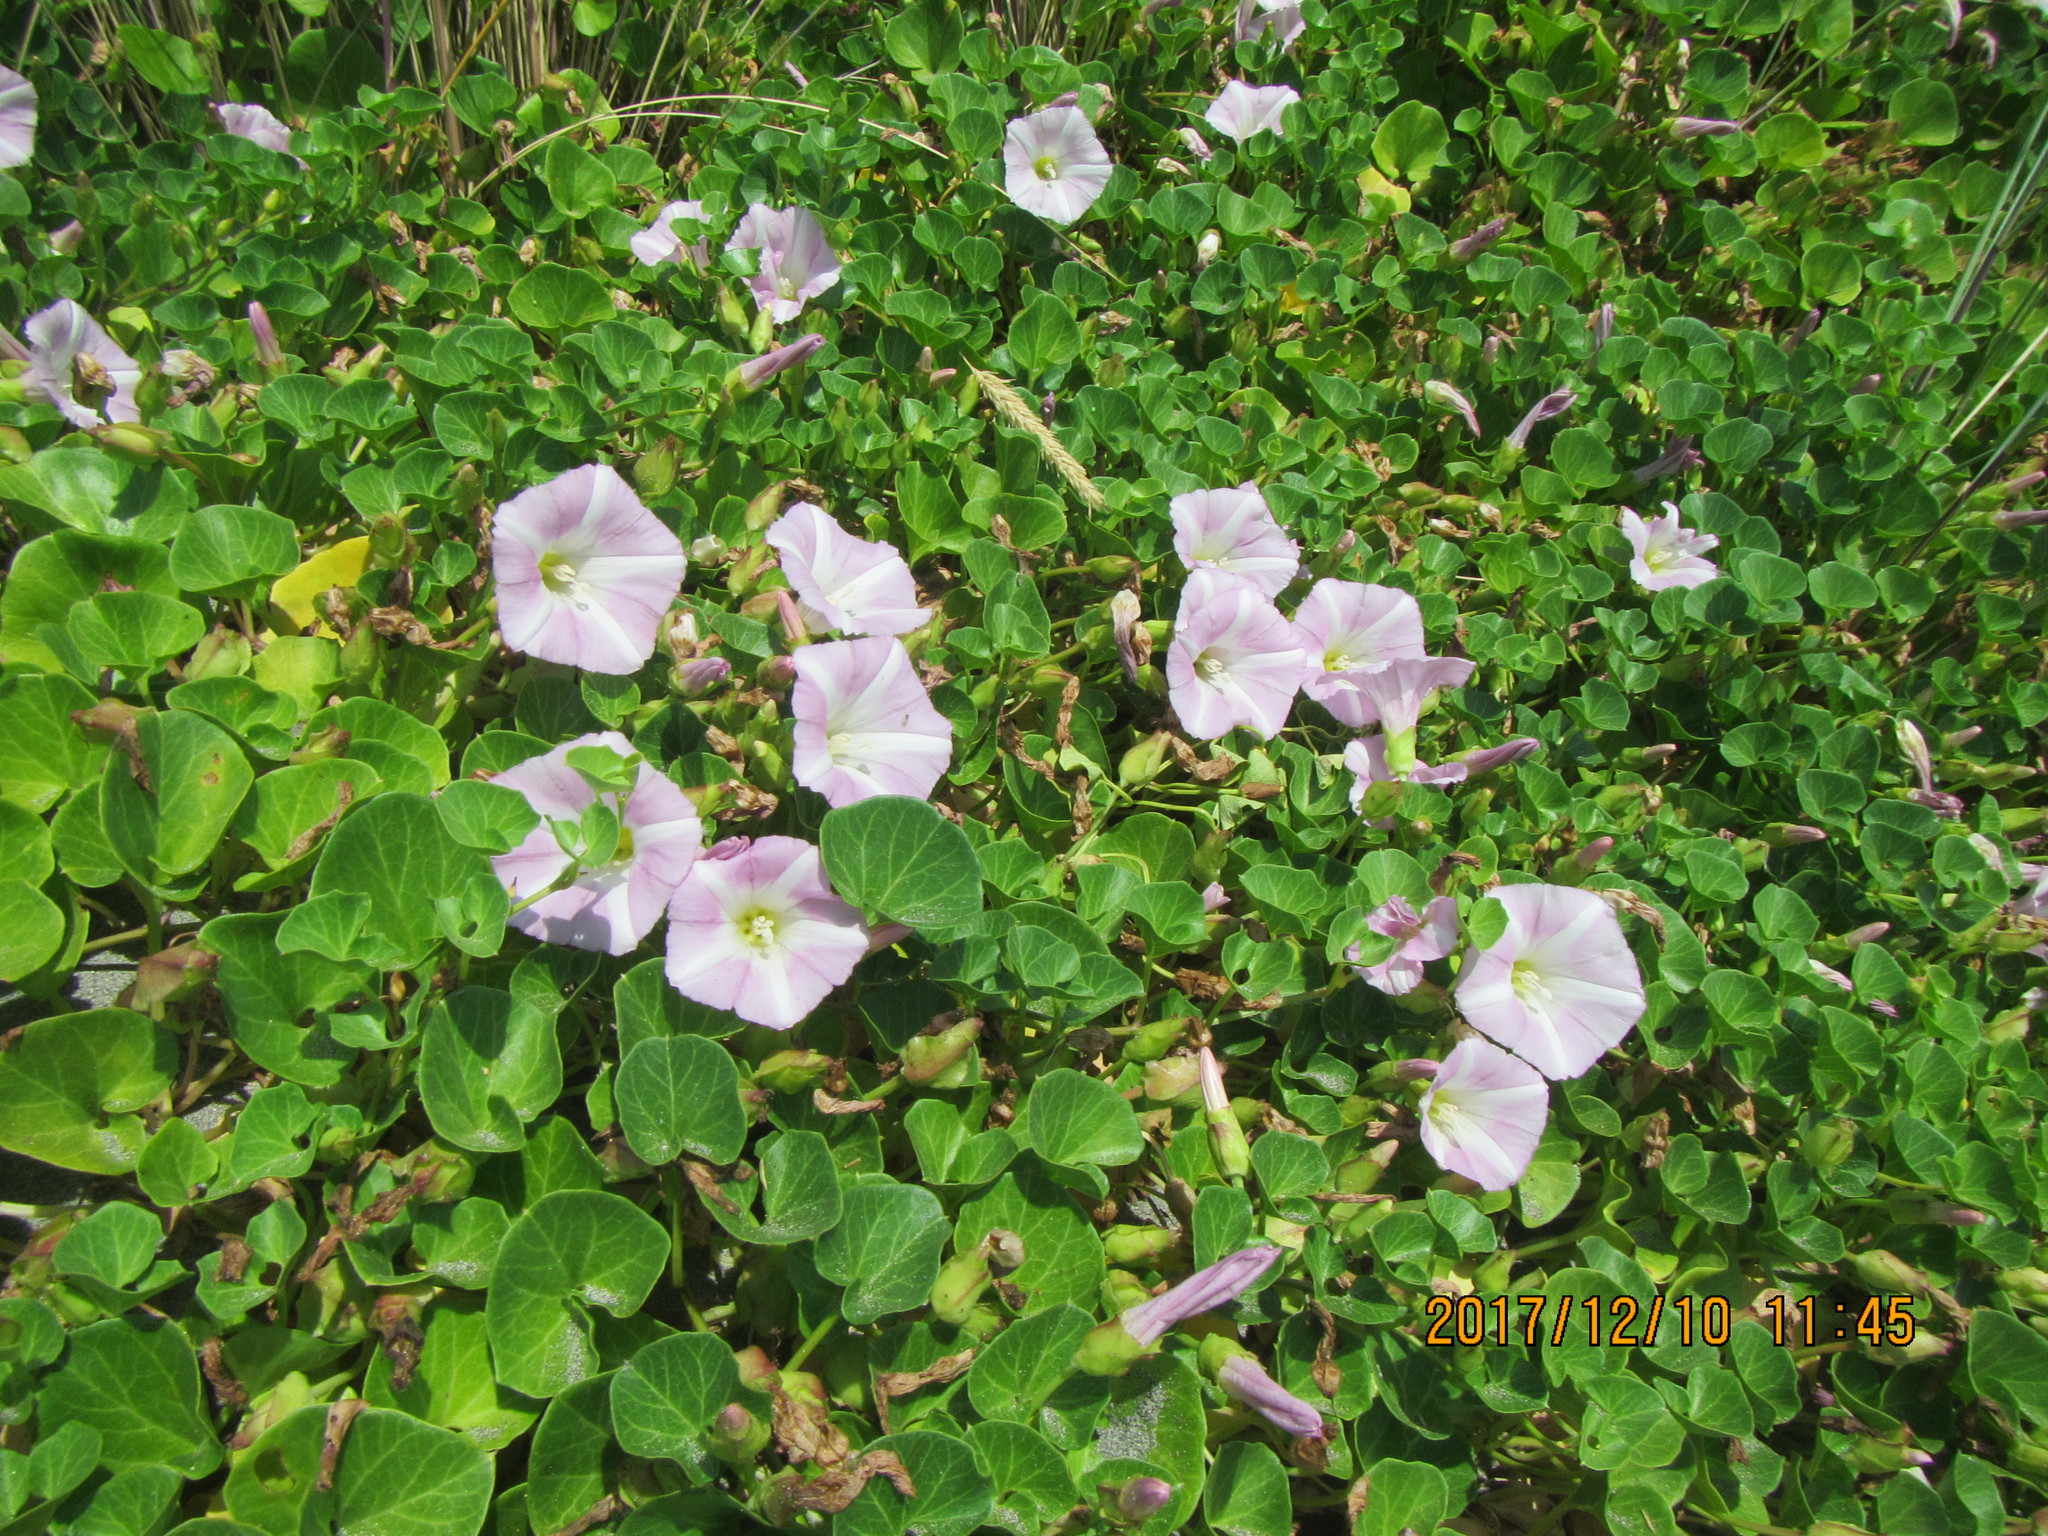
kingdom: Plantae
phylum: Tracheophyta
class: Magnoliopsida
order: Solanales
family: Convolvulaceae
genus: Calystegia
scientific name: Calystegia soldanella
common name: Sea bindweed
